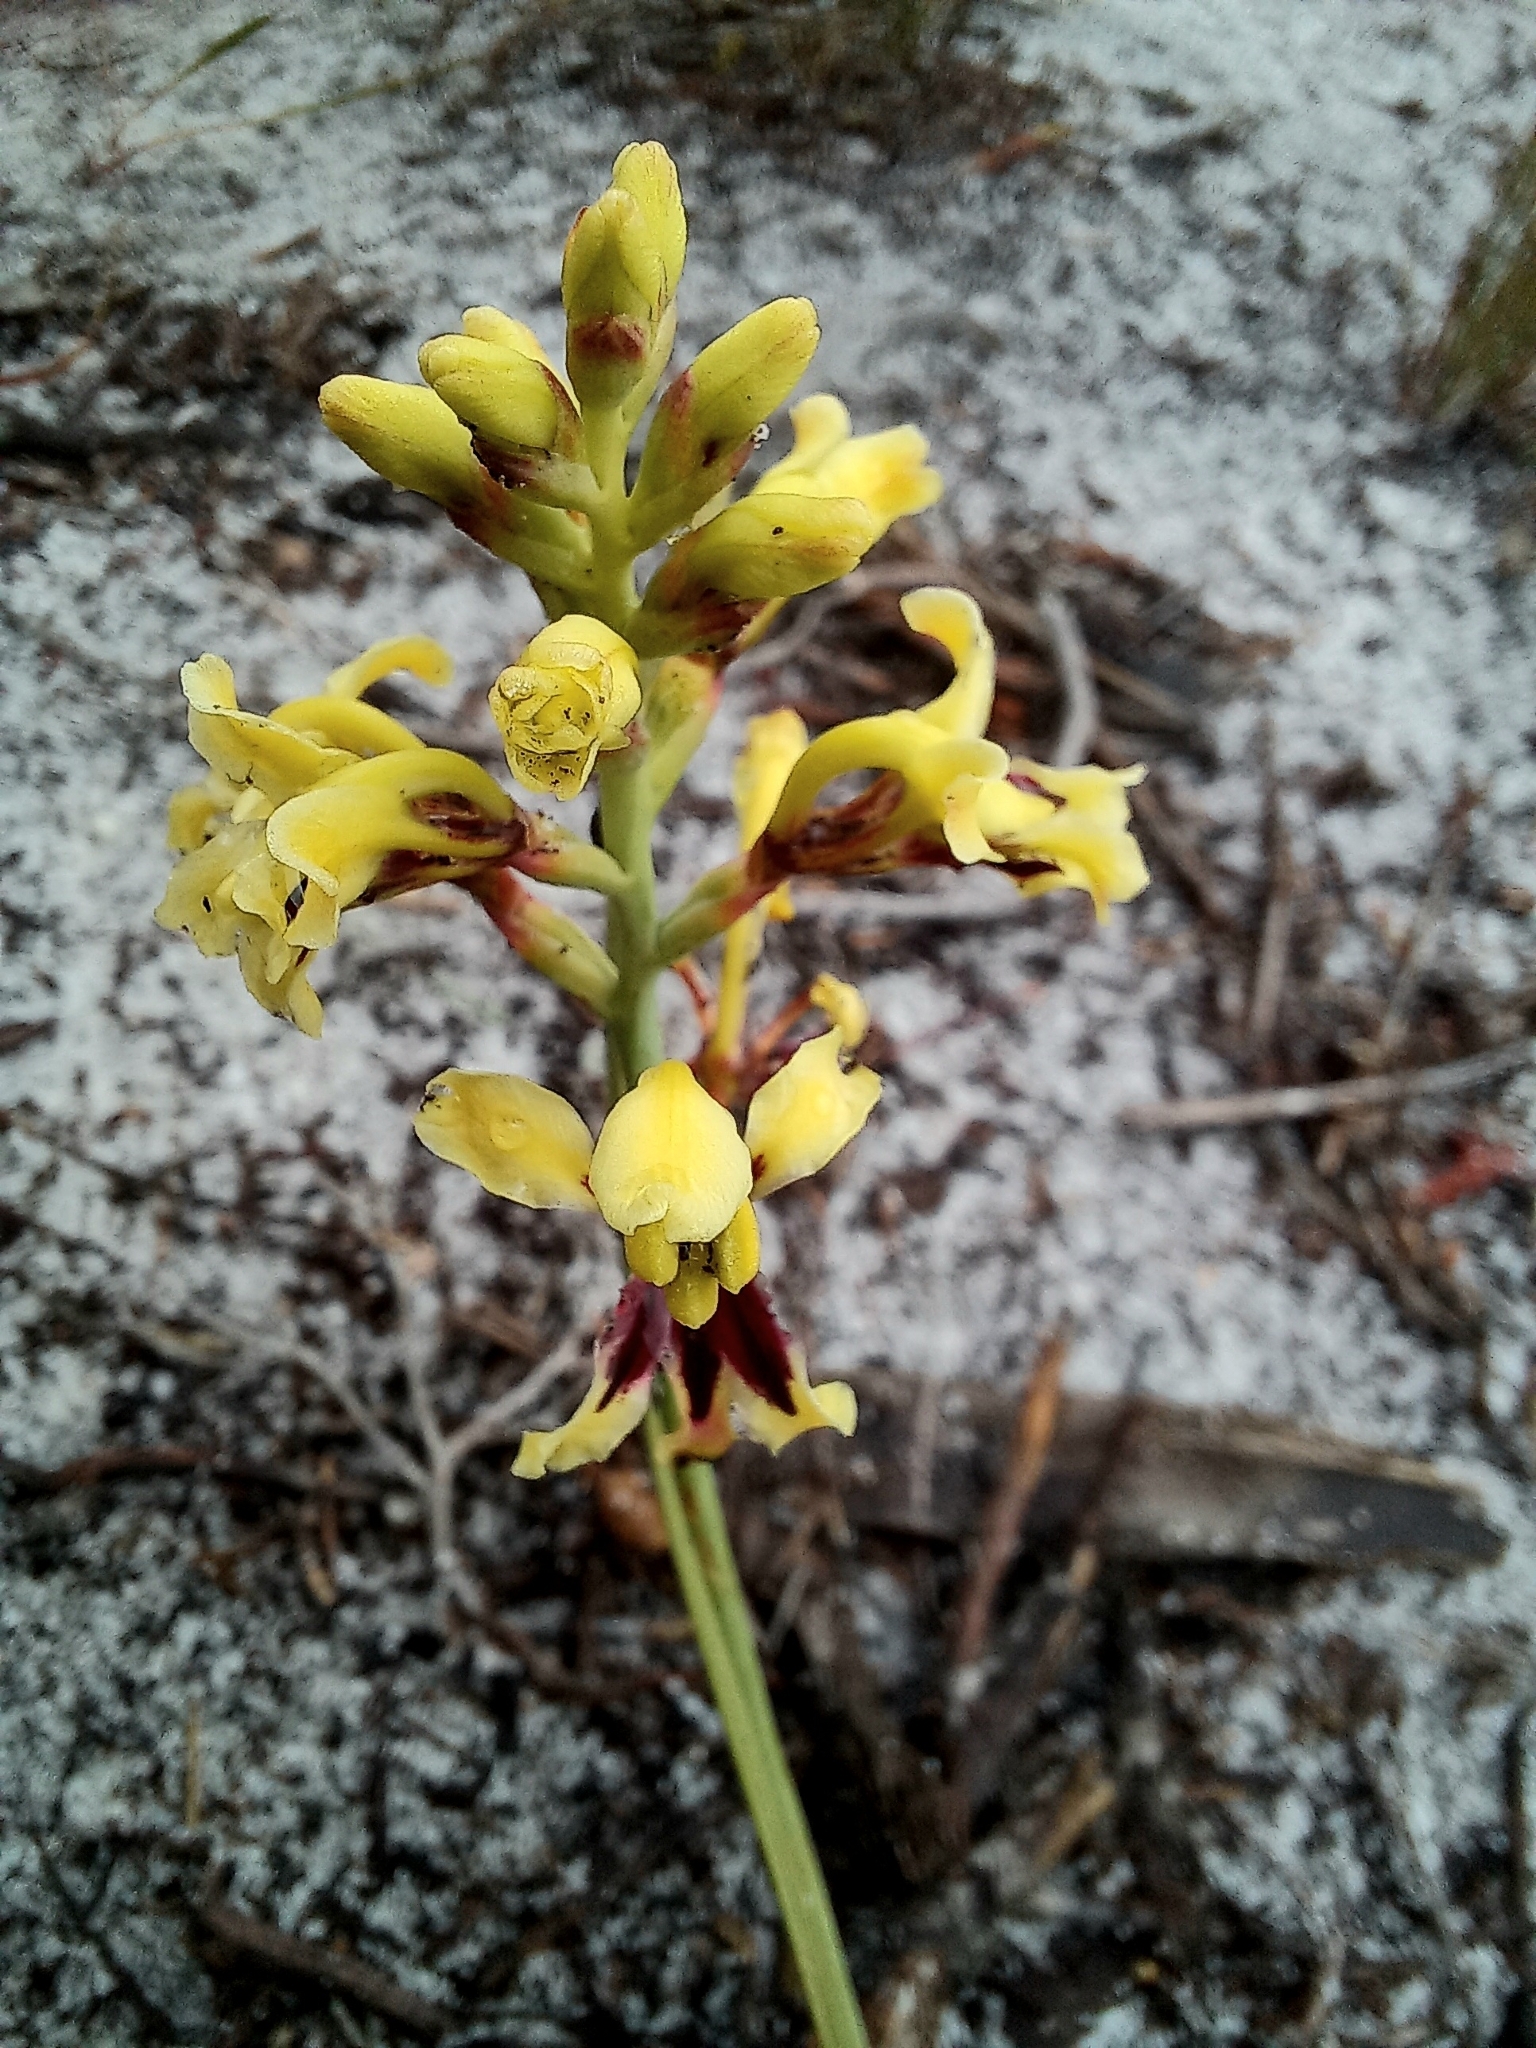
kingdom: Plantae
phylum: Tracheophyta
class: Liliopsida
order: Asparagales
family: Iridaceae
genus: Tritoniopsis
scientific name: Tritoniopsis parviflora
